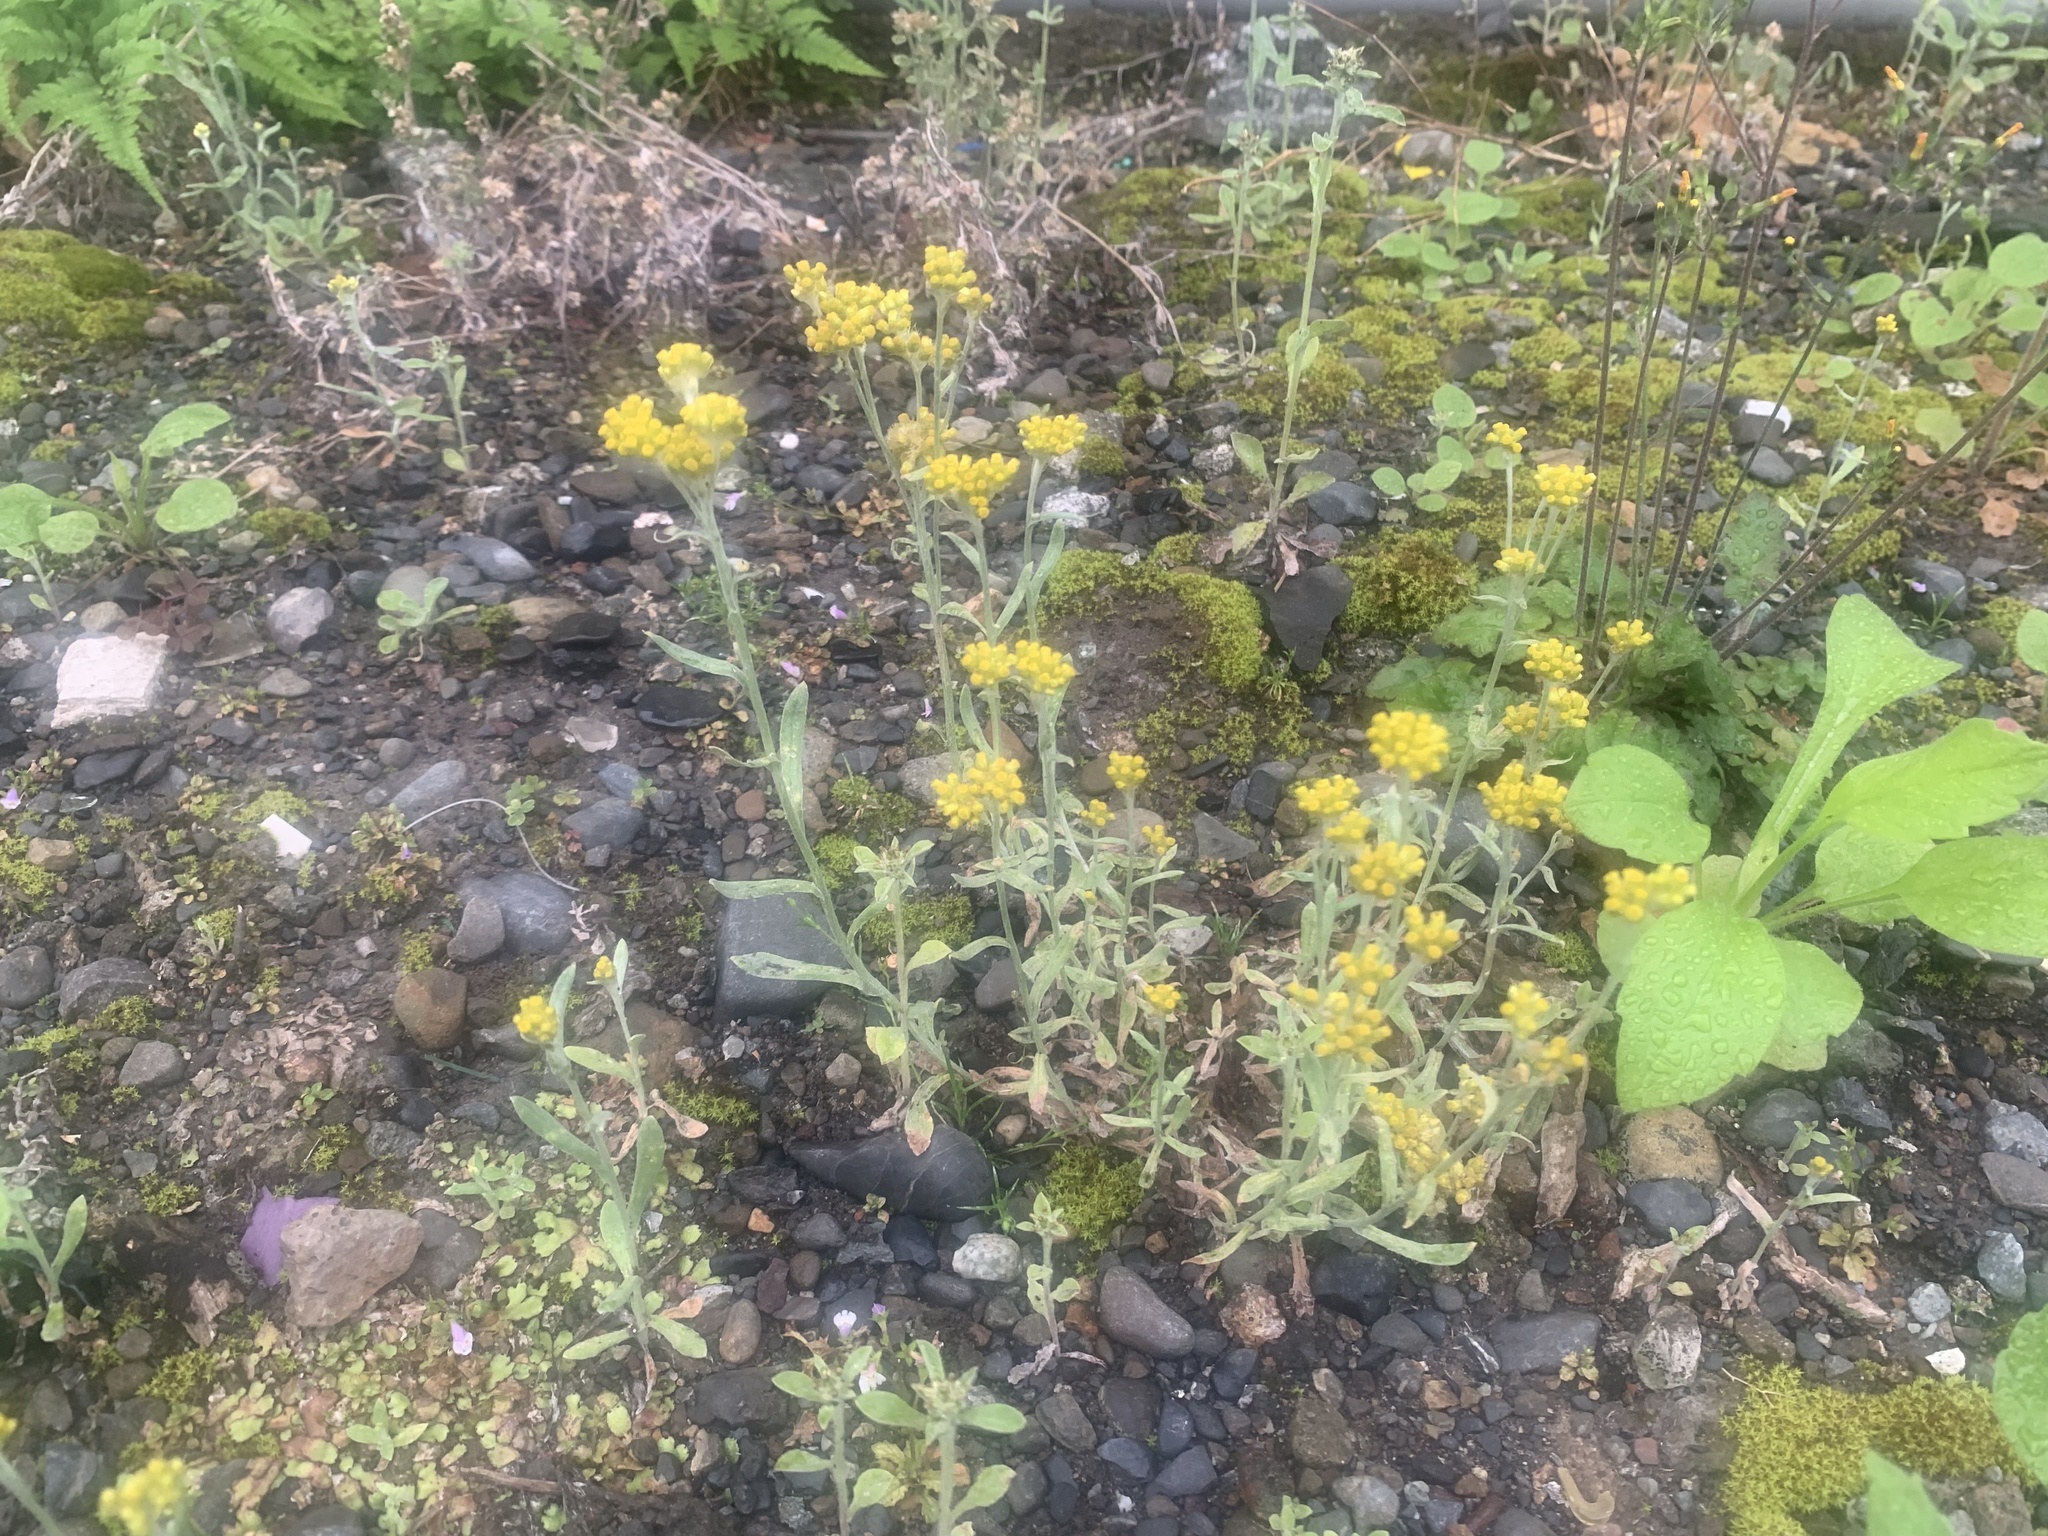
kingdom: Plantae
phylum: Tracheophyta
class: Magnoliopsida
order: Asterales
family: Asteraceae
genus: Pseudognaphalium
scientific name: Pseudognaphalium affine
